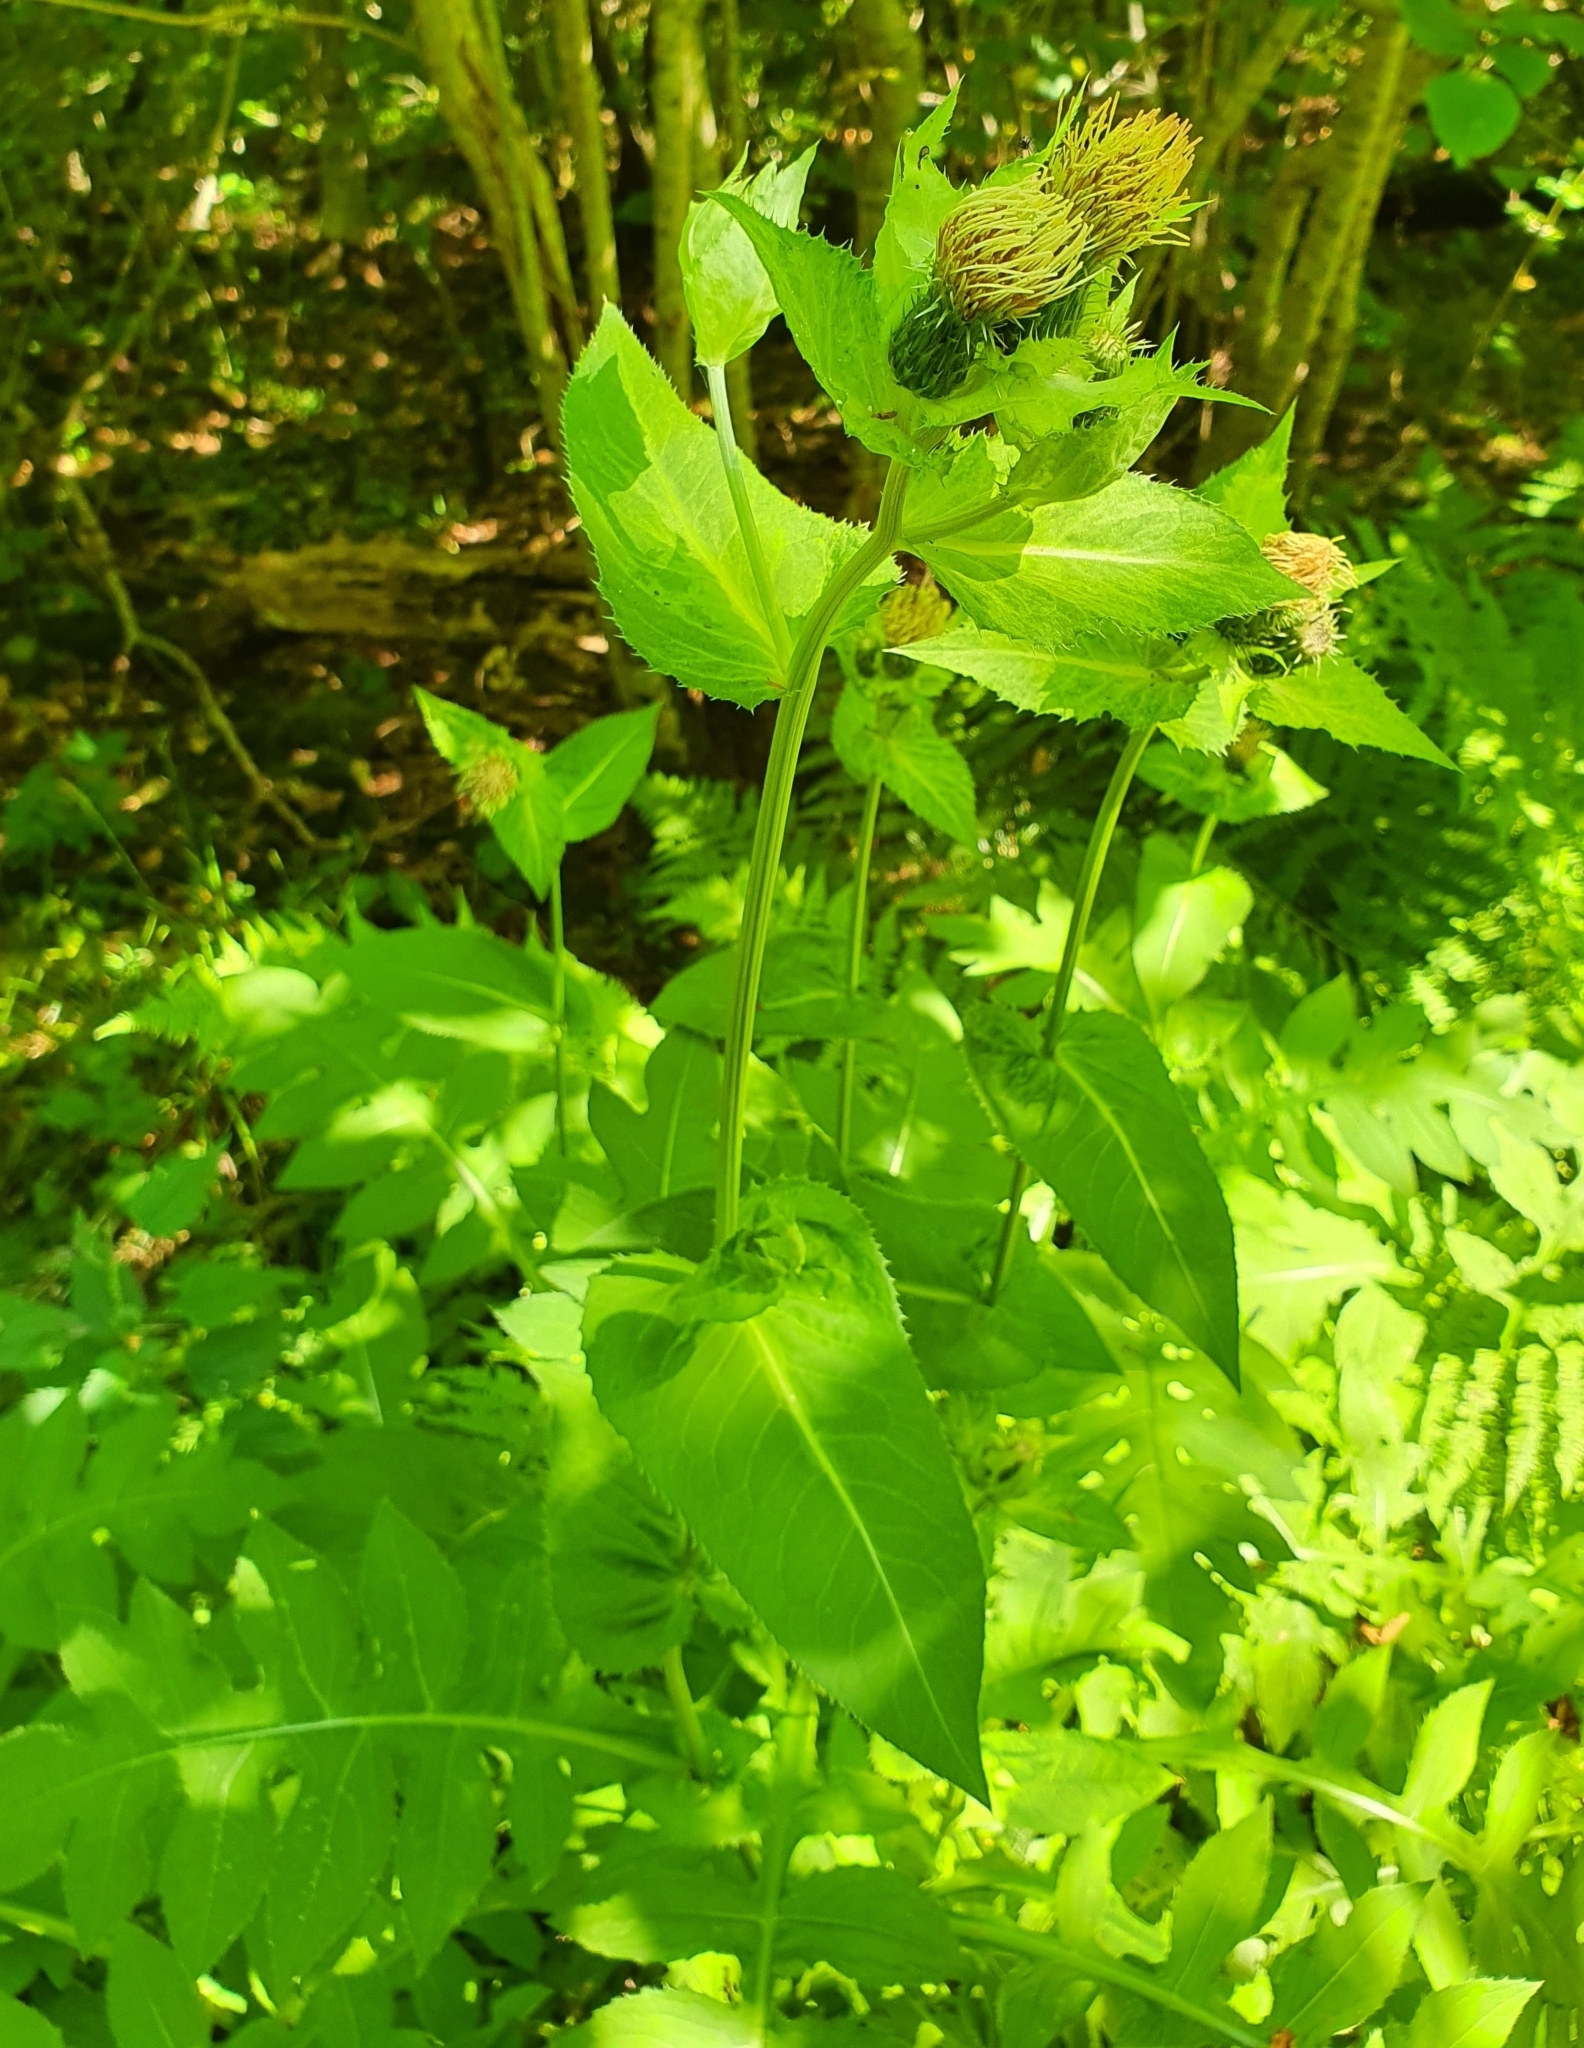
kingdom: Plantae
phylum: Tracheophyta
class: Magnoliopsida
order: Asterales
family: Asteraceae
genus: Cirsium
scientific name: Cirsium oleraceum
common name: Cabbage thistle
